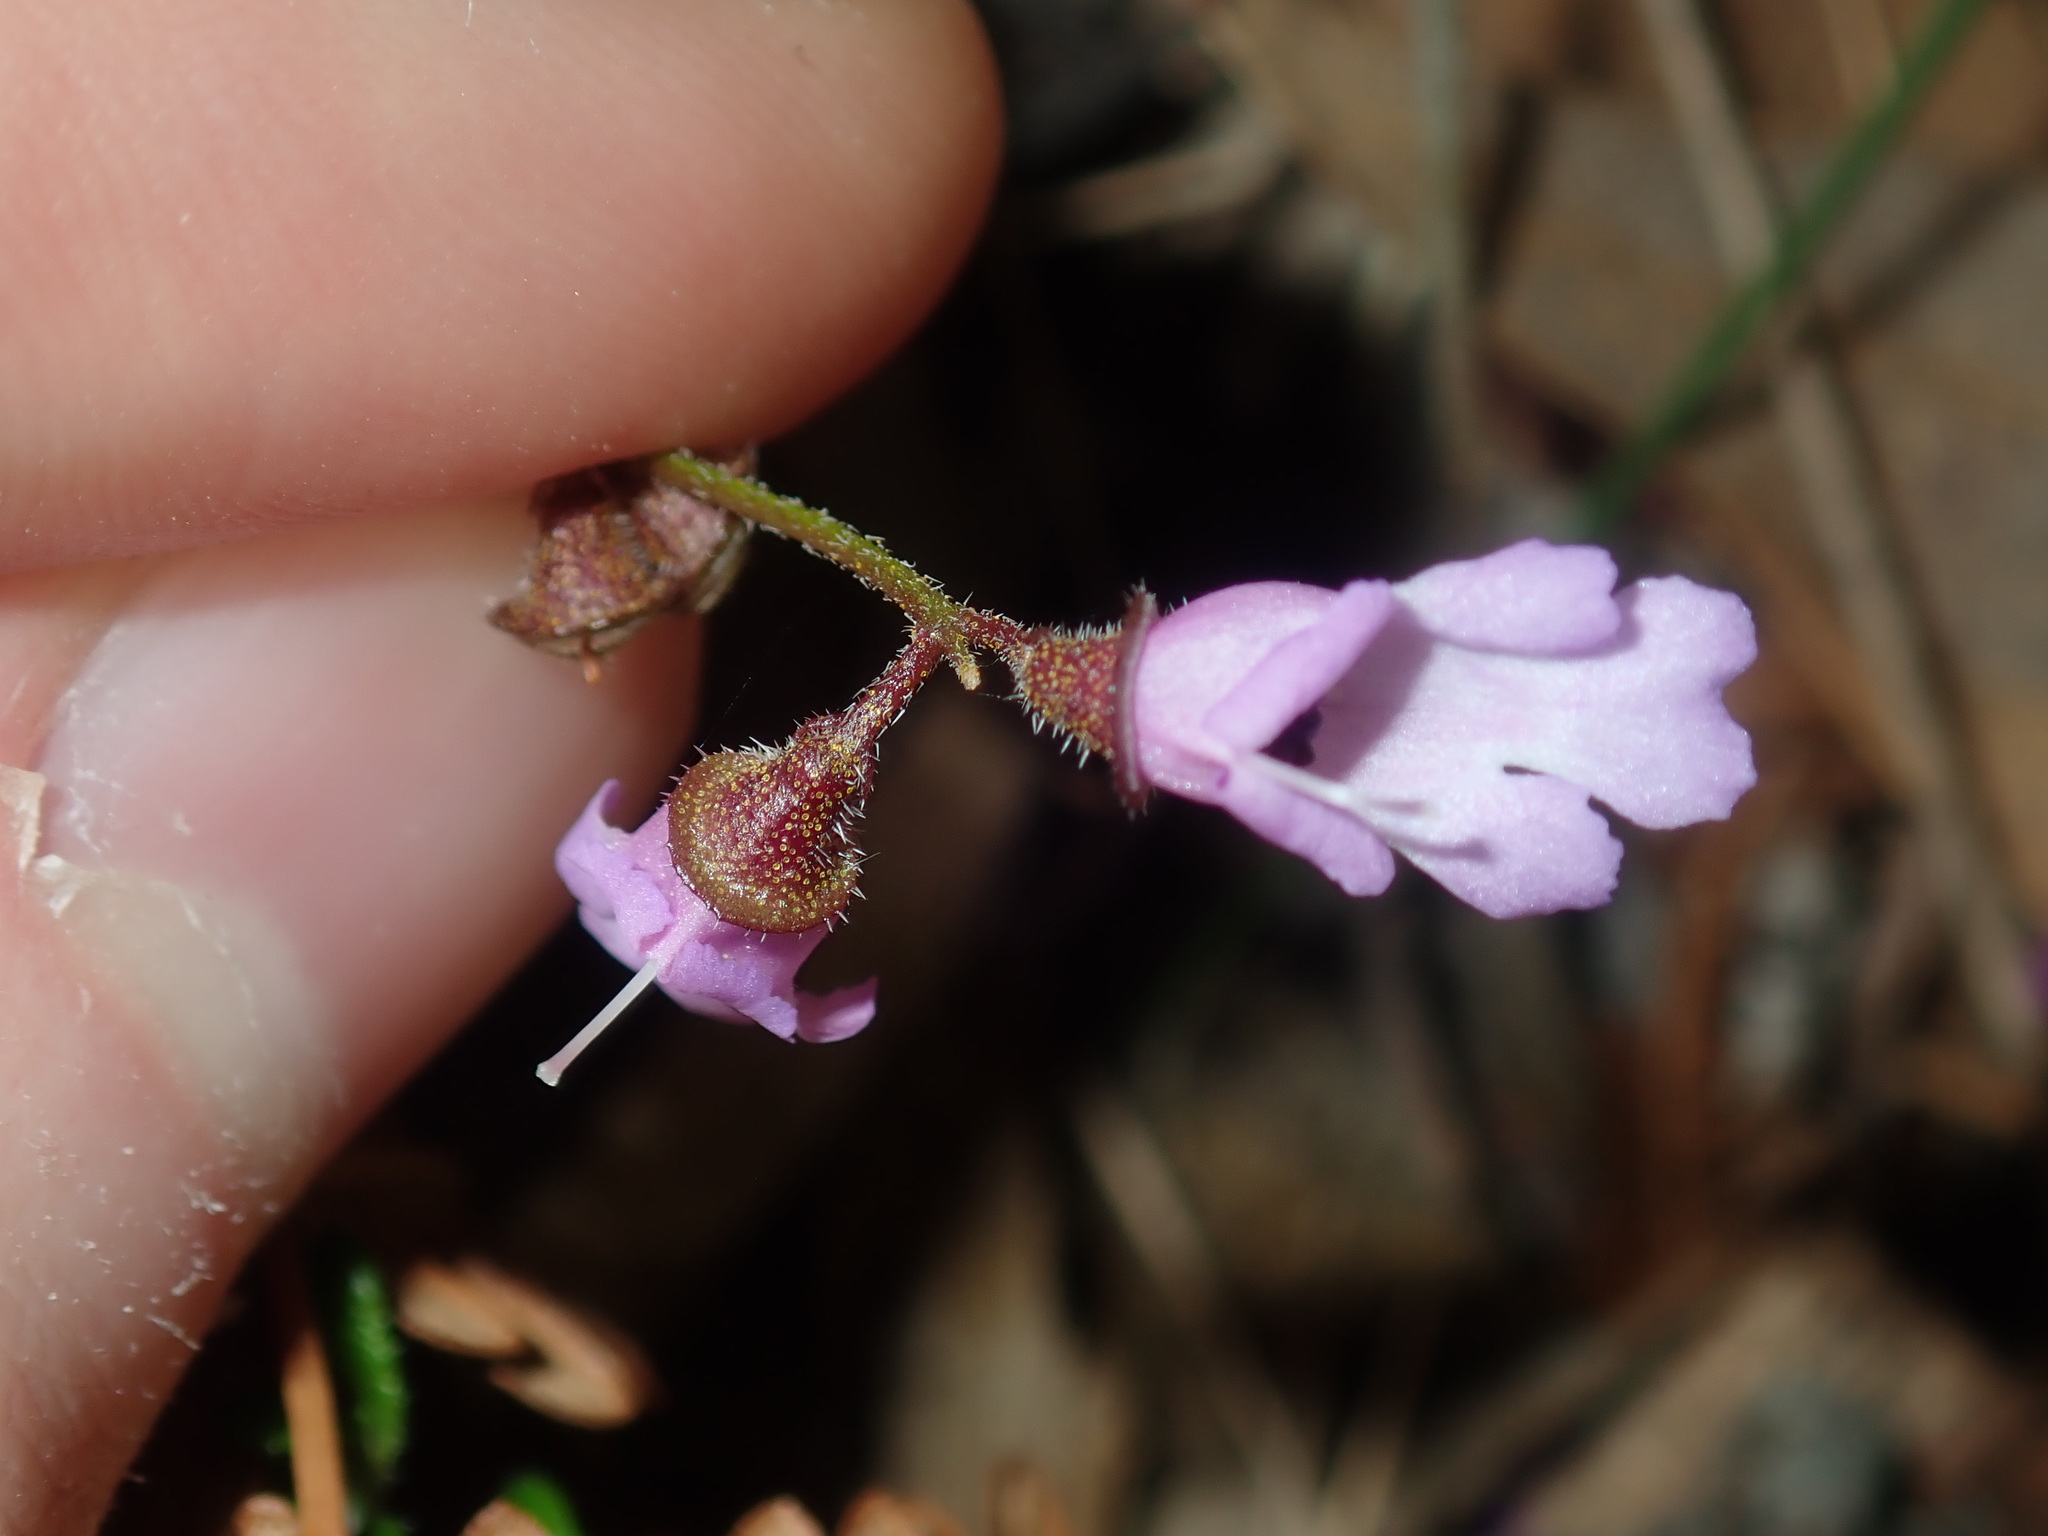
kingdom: Plantae
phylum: Tracheophyta
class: Magnoliopsida
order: Lamiales
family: Lamiaceae
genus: Prostanthera
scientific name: Prostanthera denticulata
